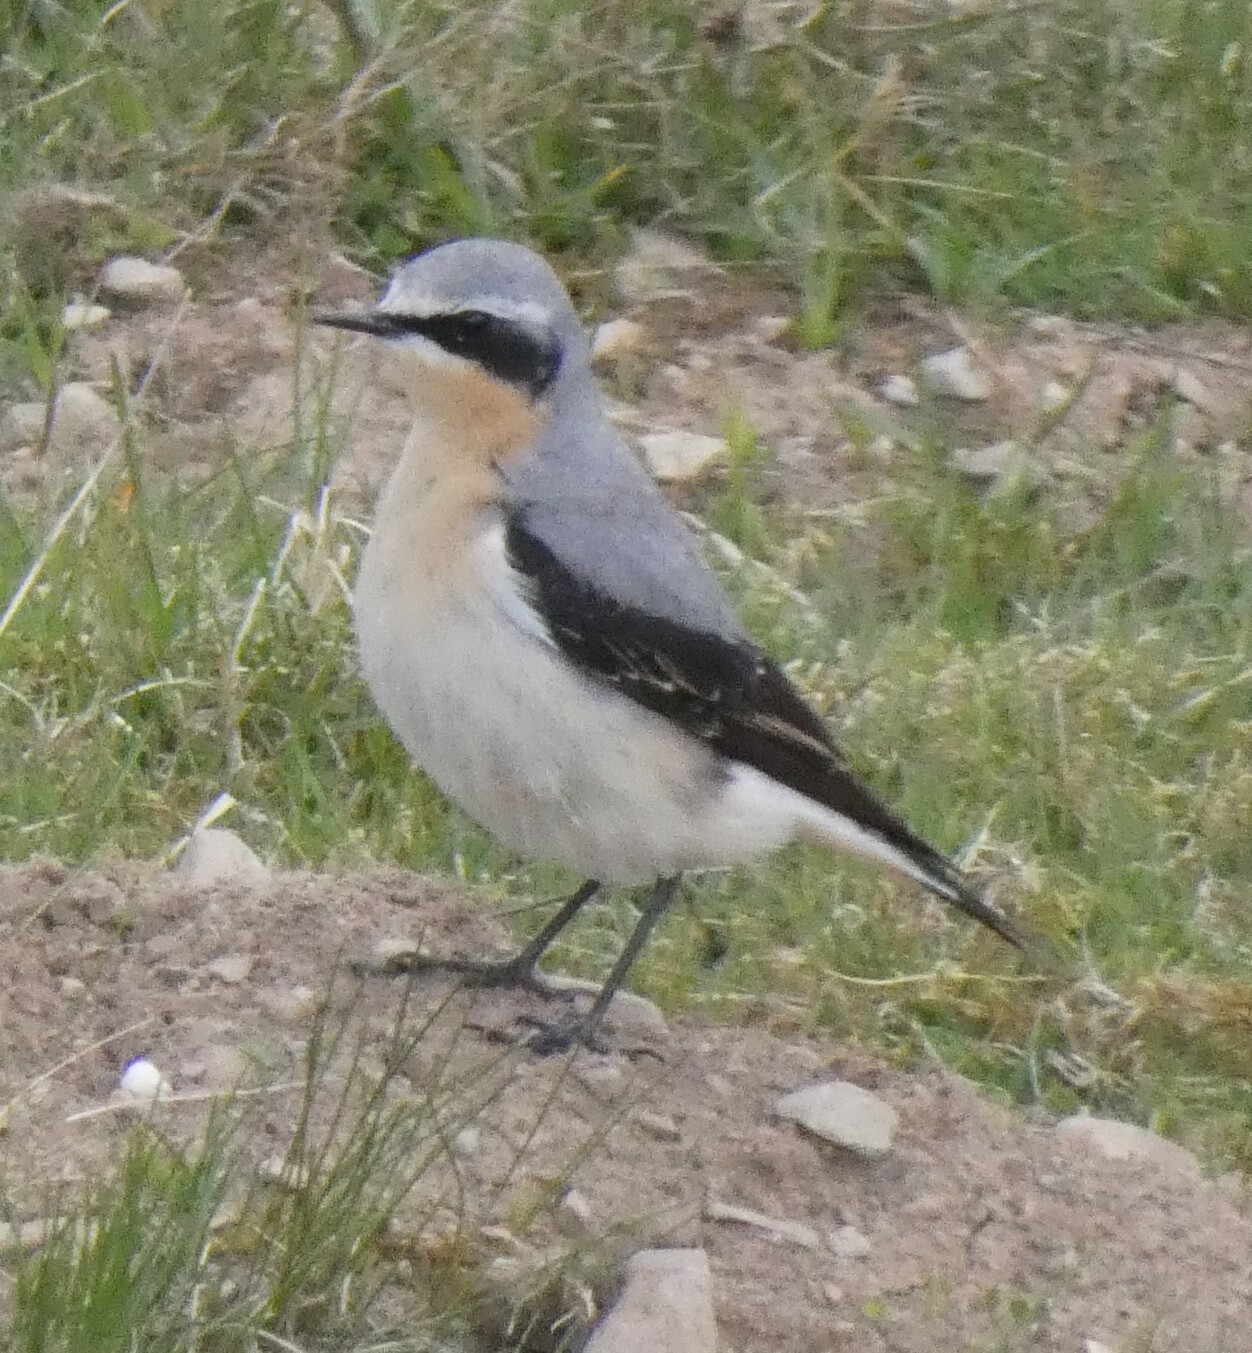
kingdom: Animalia
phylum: Chordata
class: Aves
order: Passeriformes
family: Muscicapidae
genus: Oenanthe
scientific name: Oenanthe oenanthe
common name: Northern wheatear
